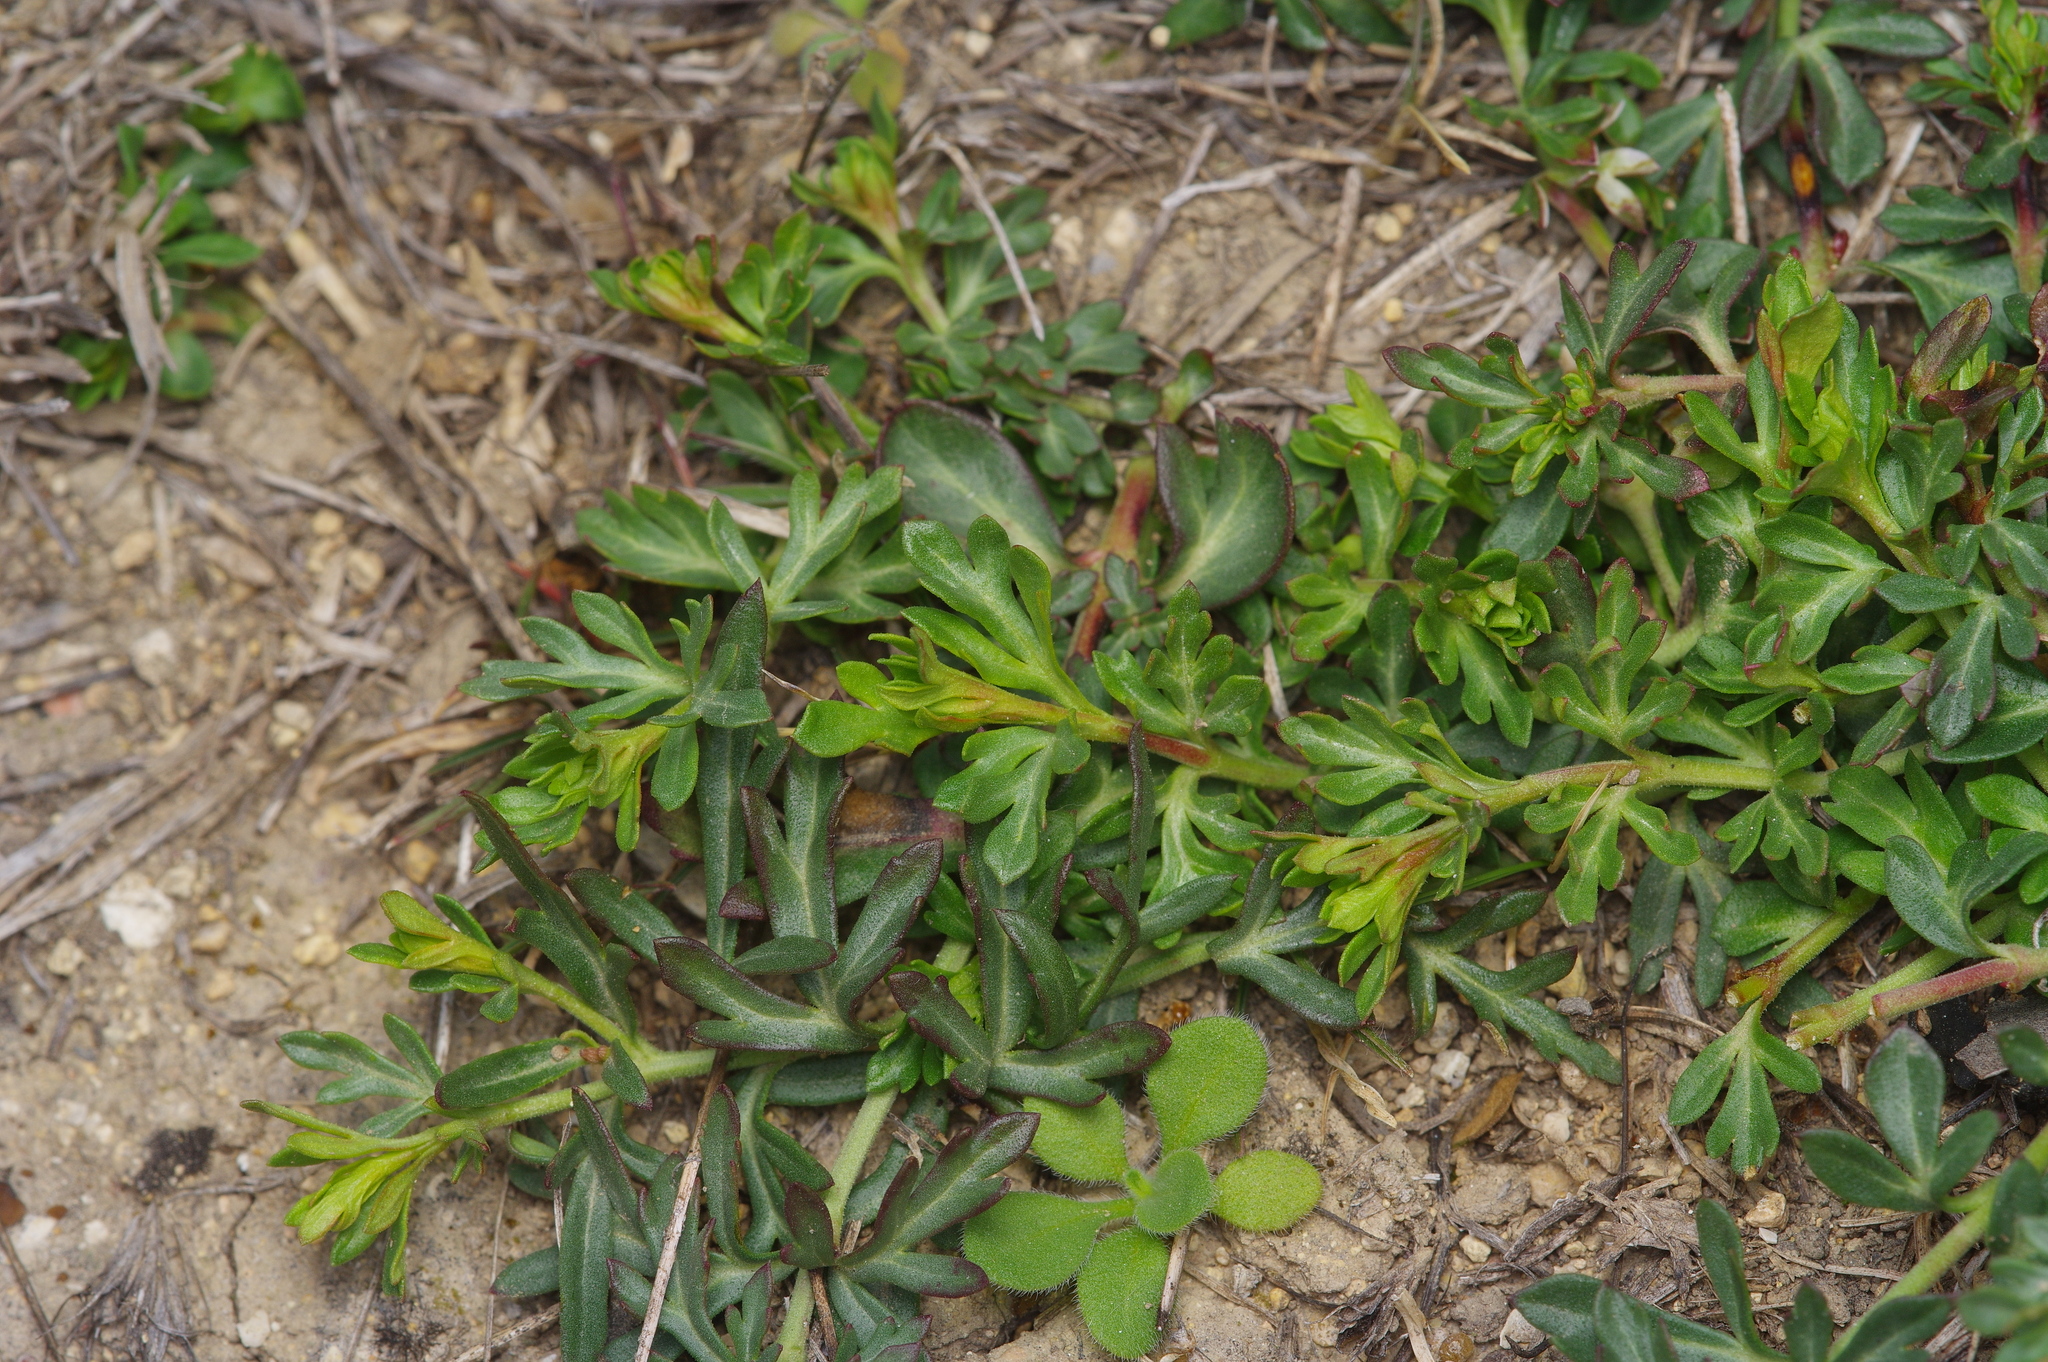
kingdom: Plantae
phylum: Tracheophyta
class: Magnoliopsida
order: Lamiales
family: Oleaceae
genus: Menodora
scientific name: Menodora heterophylla
